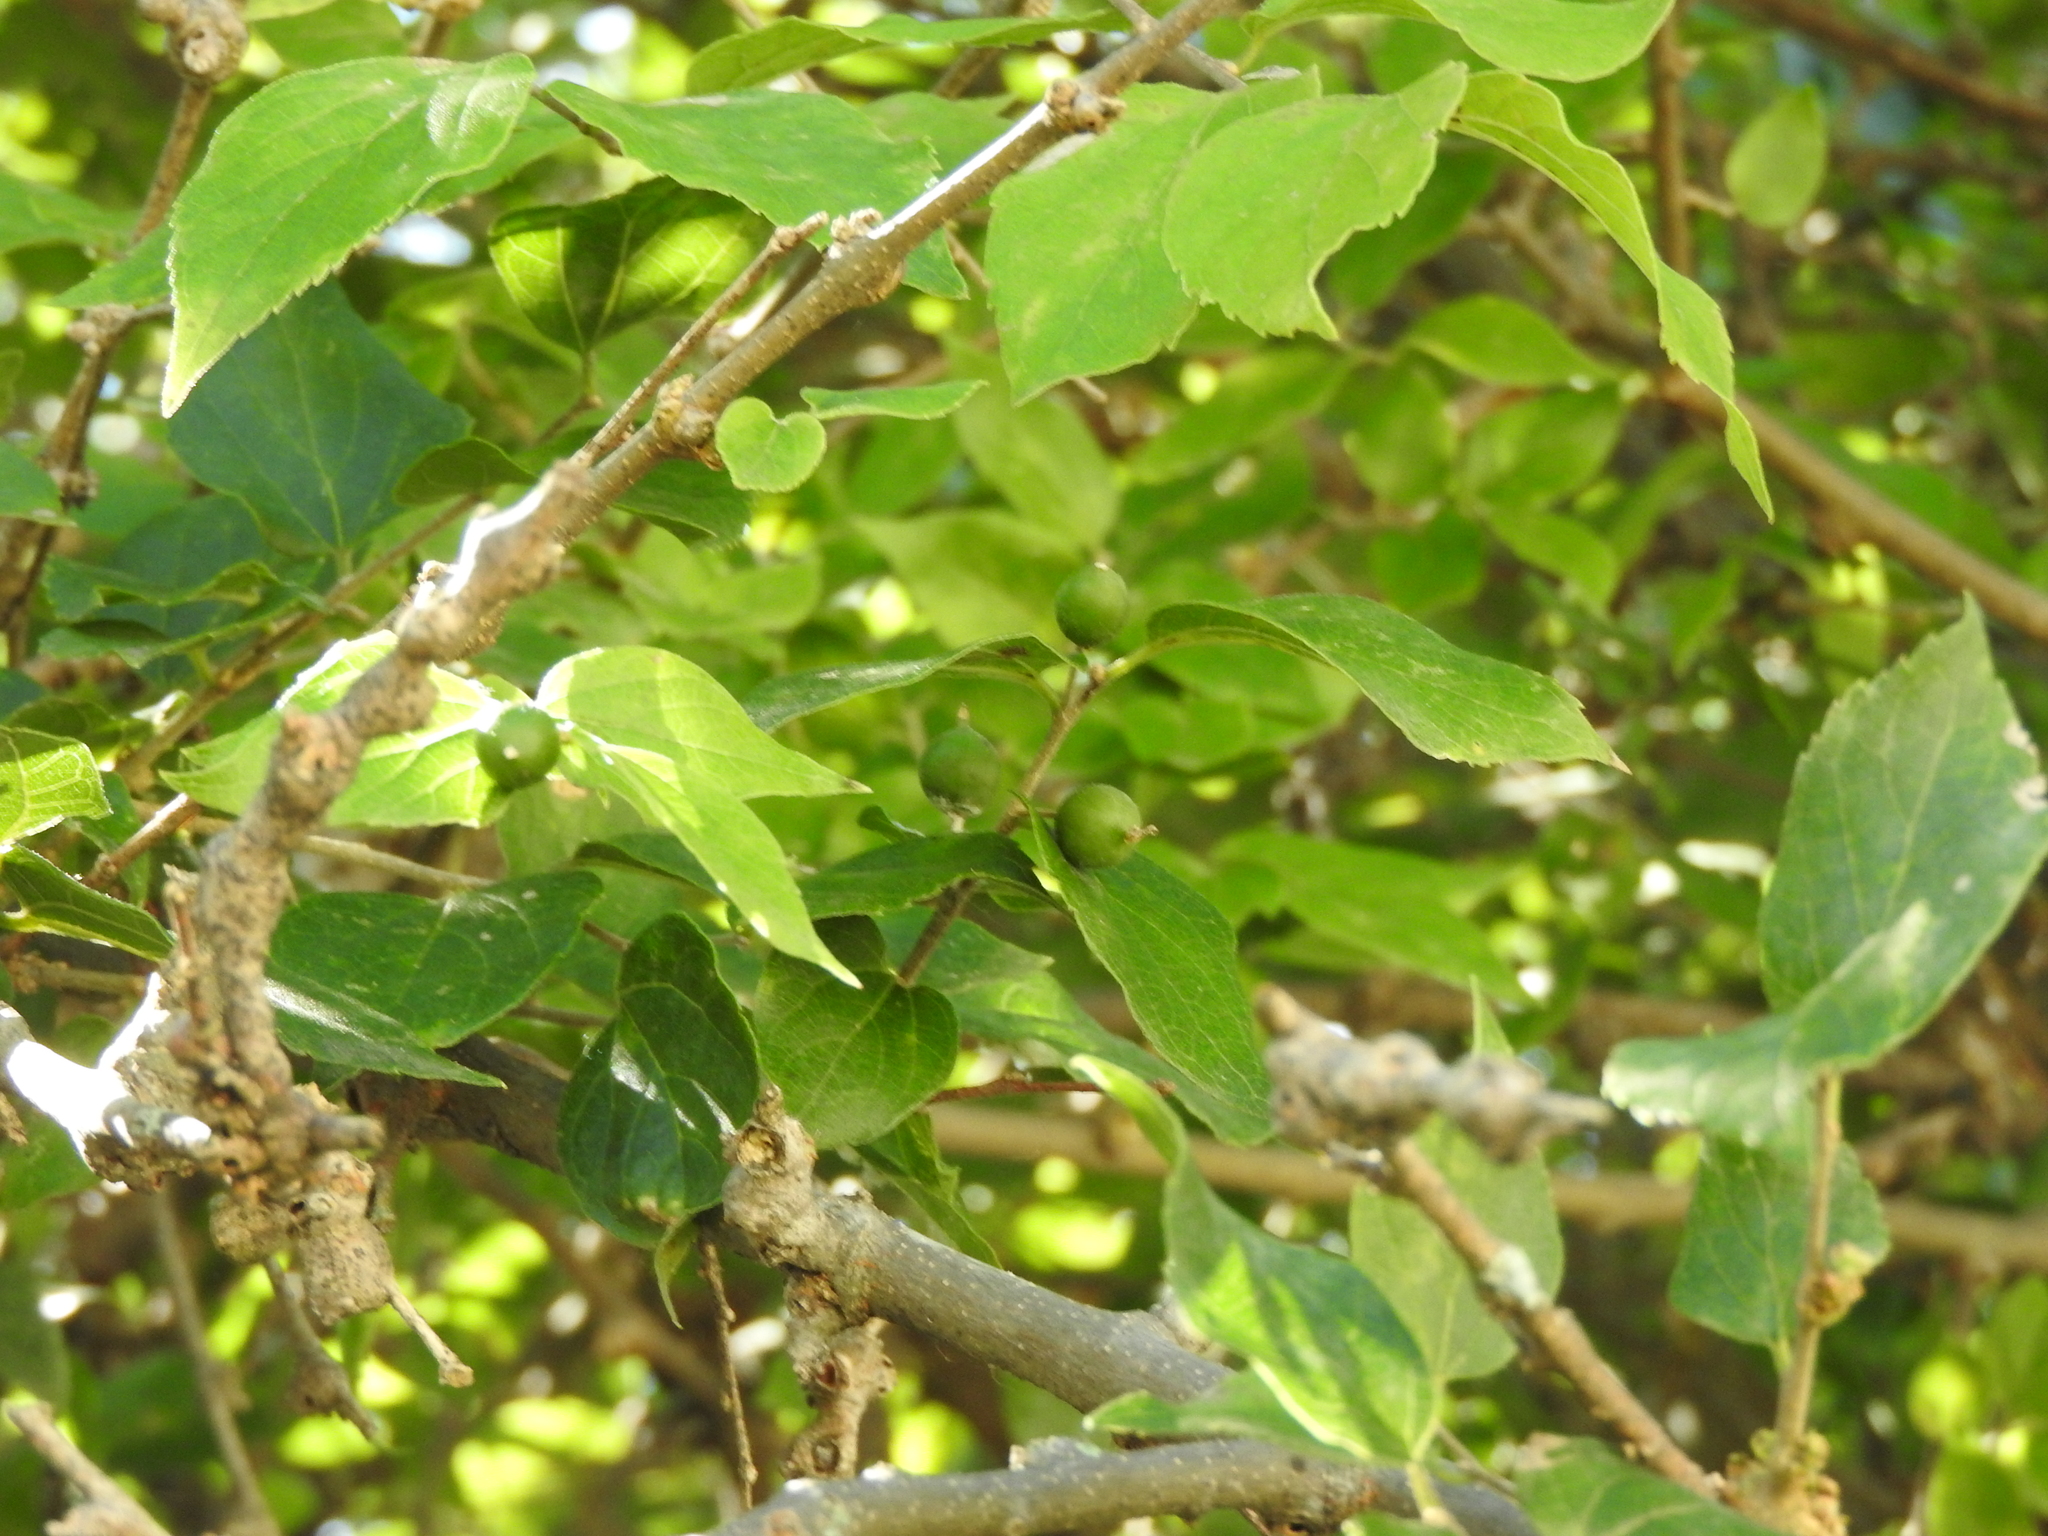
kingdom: Plantae
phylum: Tracheophyta
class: Magnoliopsida
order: Boraginales
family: Ehretiaceae
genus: Ehretia
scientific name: Ehretia latifolia
